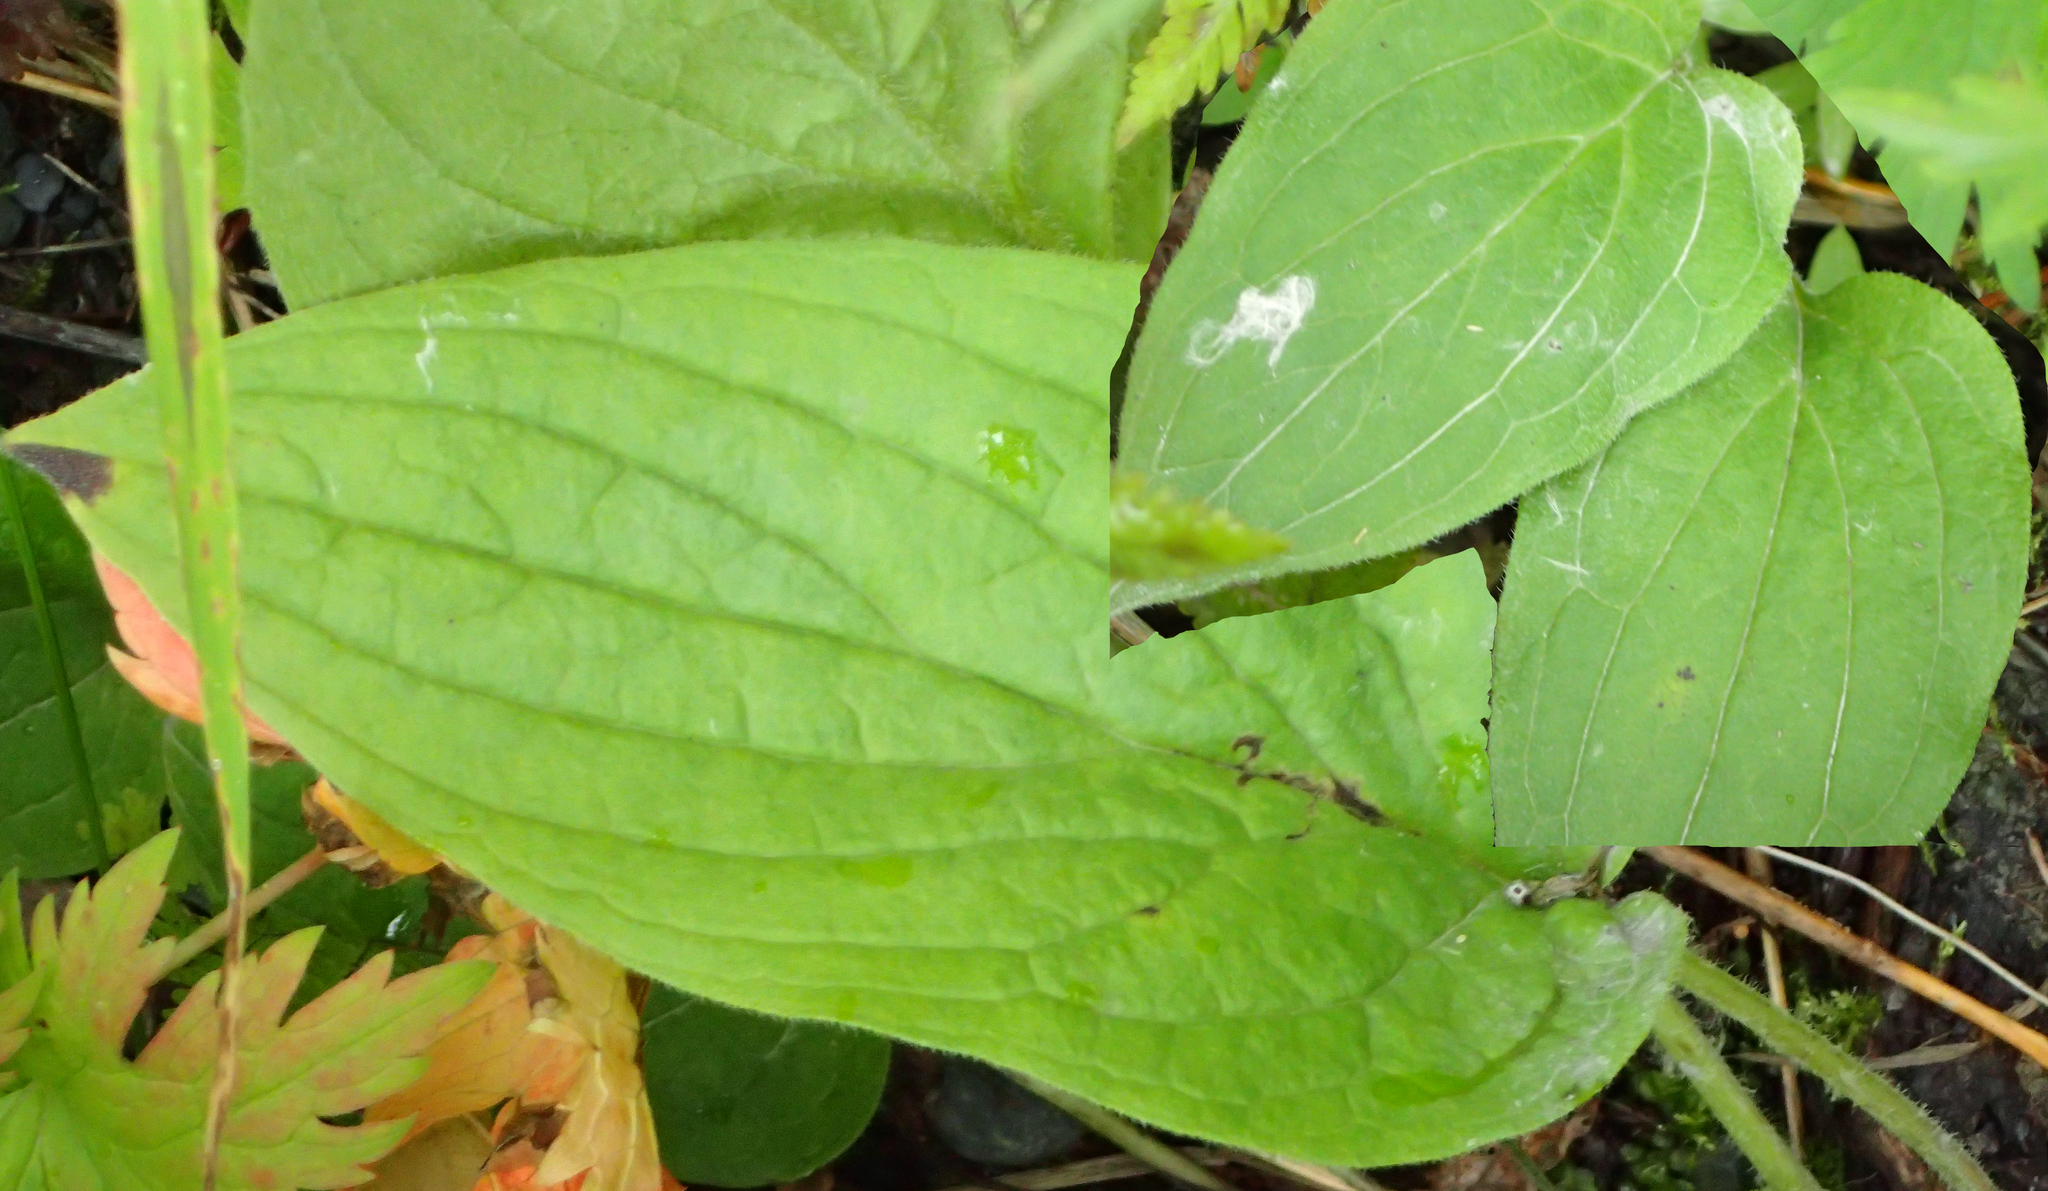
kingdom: Plantae
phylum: Tracheophyta
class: Magnoliopsida
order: Boraginales
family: Boraginaceae
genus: Mertensia
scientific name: Mertensia paniculata
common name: Panicled bluebells
